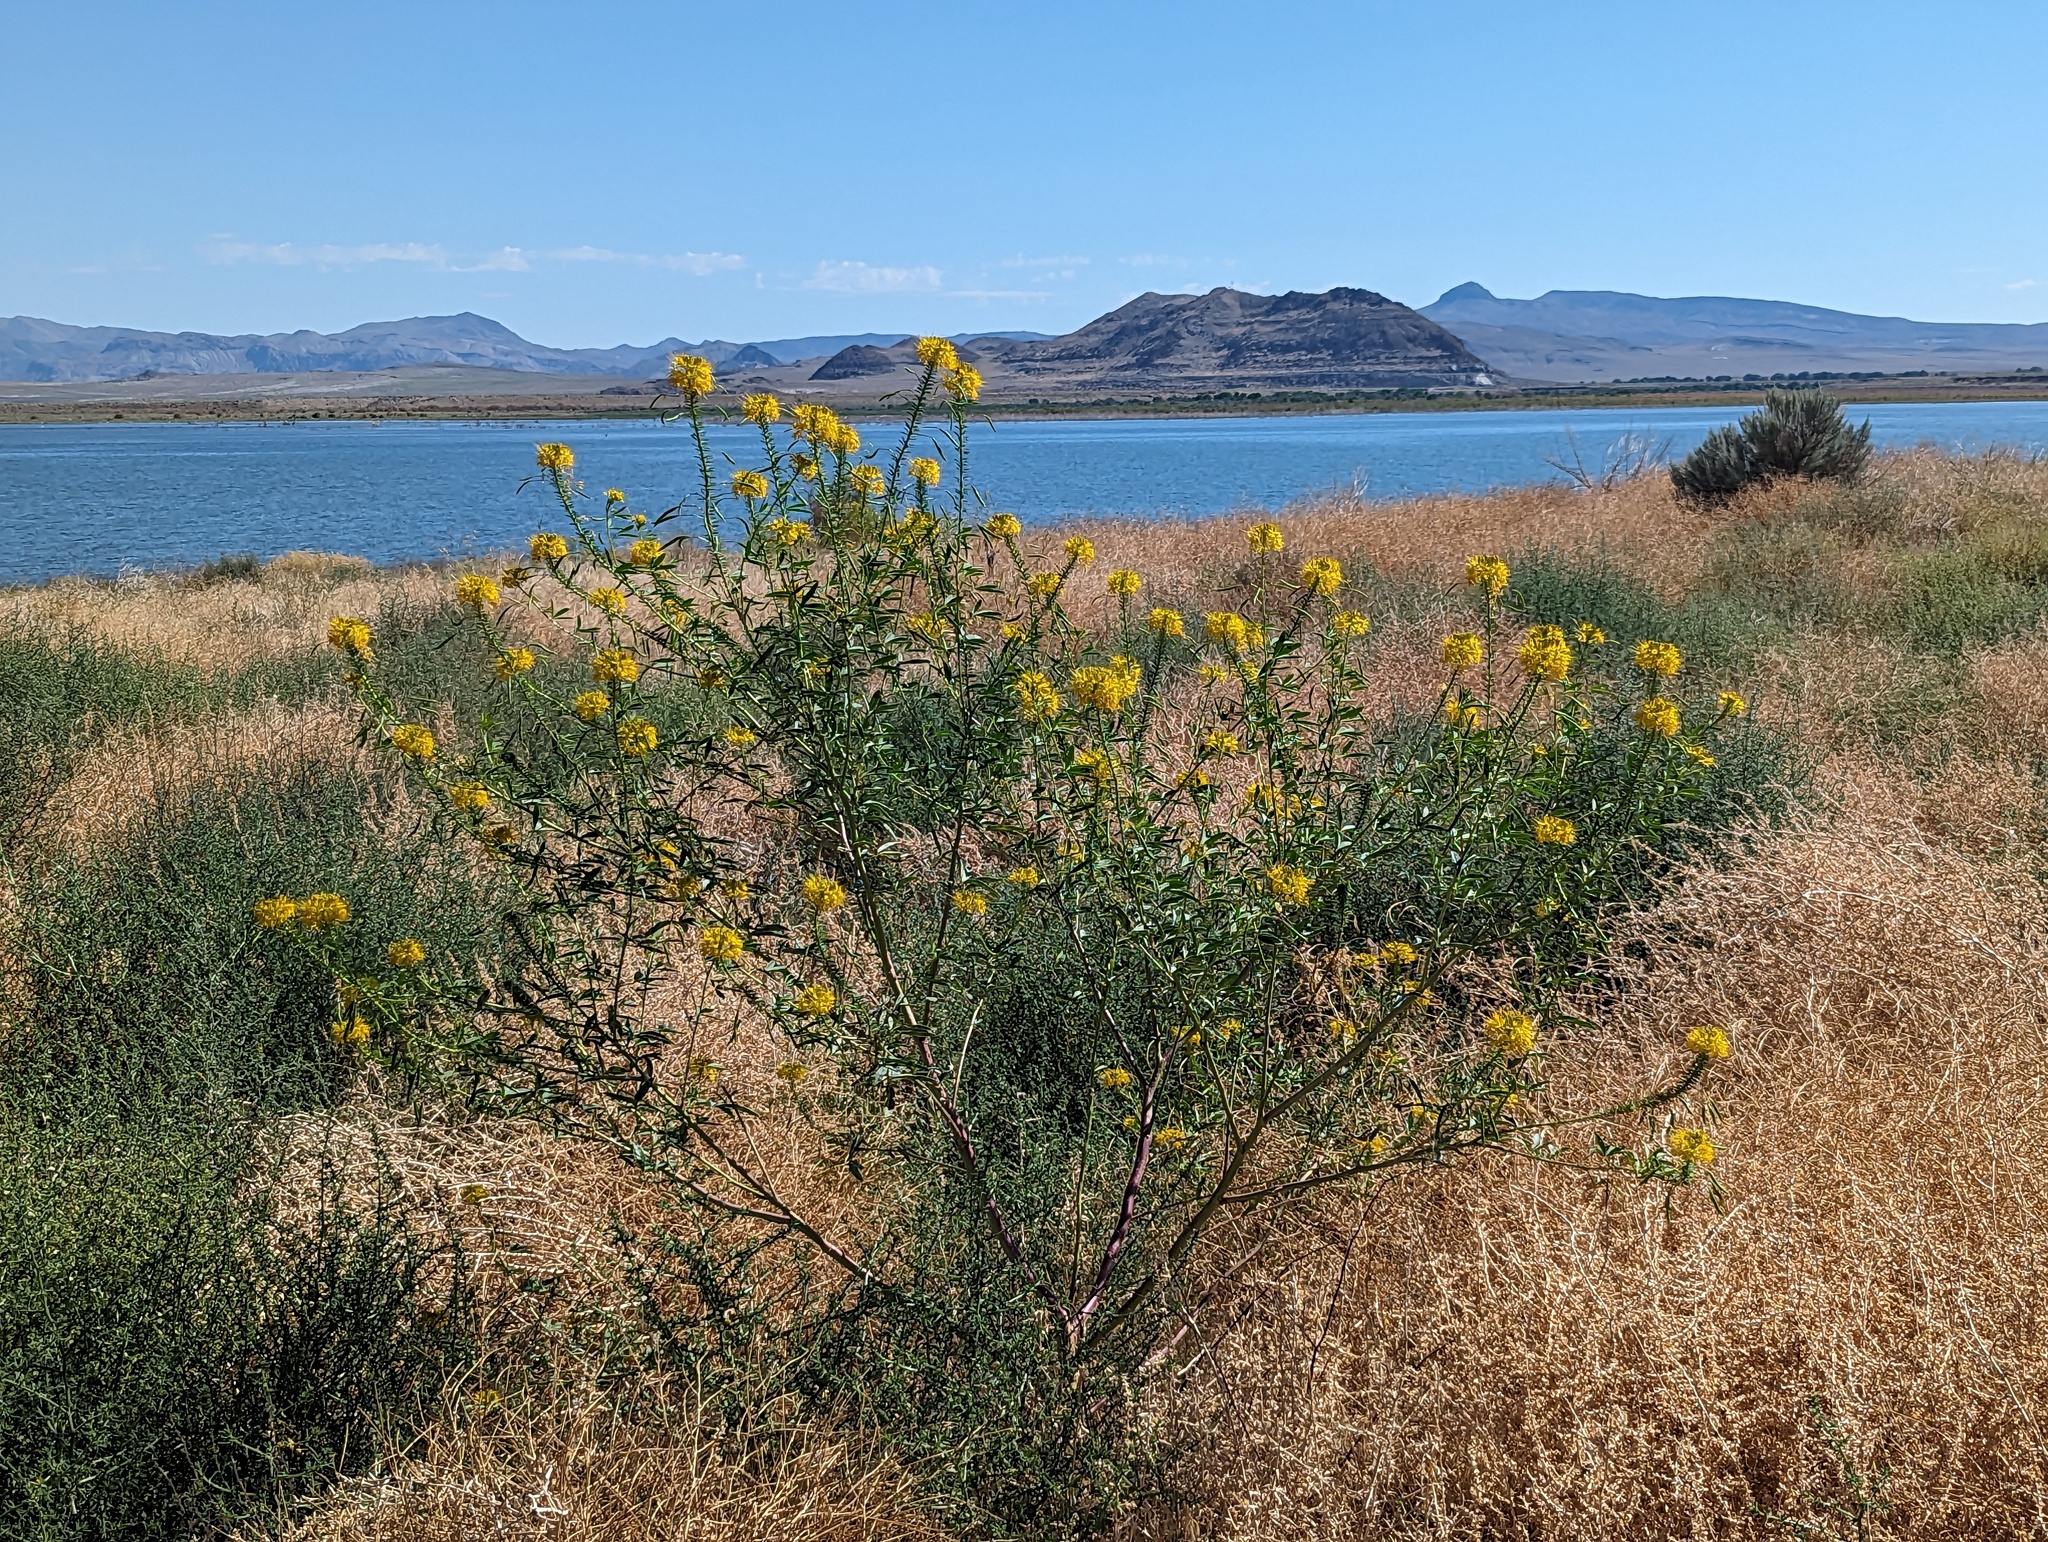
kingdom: Plantae
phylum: Tracheophyta
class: Magnoliopsida
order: Brassicales
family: Cleomaceae
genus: Cleomella
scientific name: Cleomella lutea
